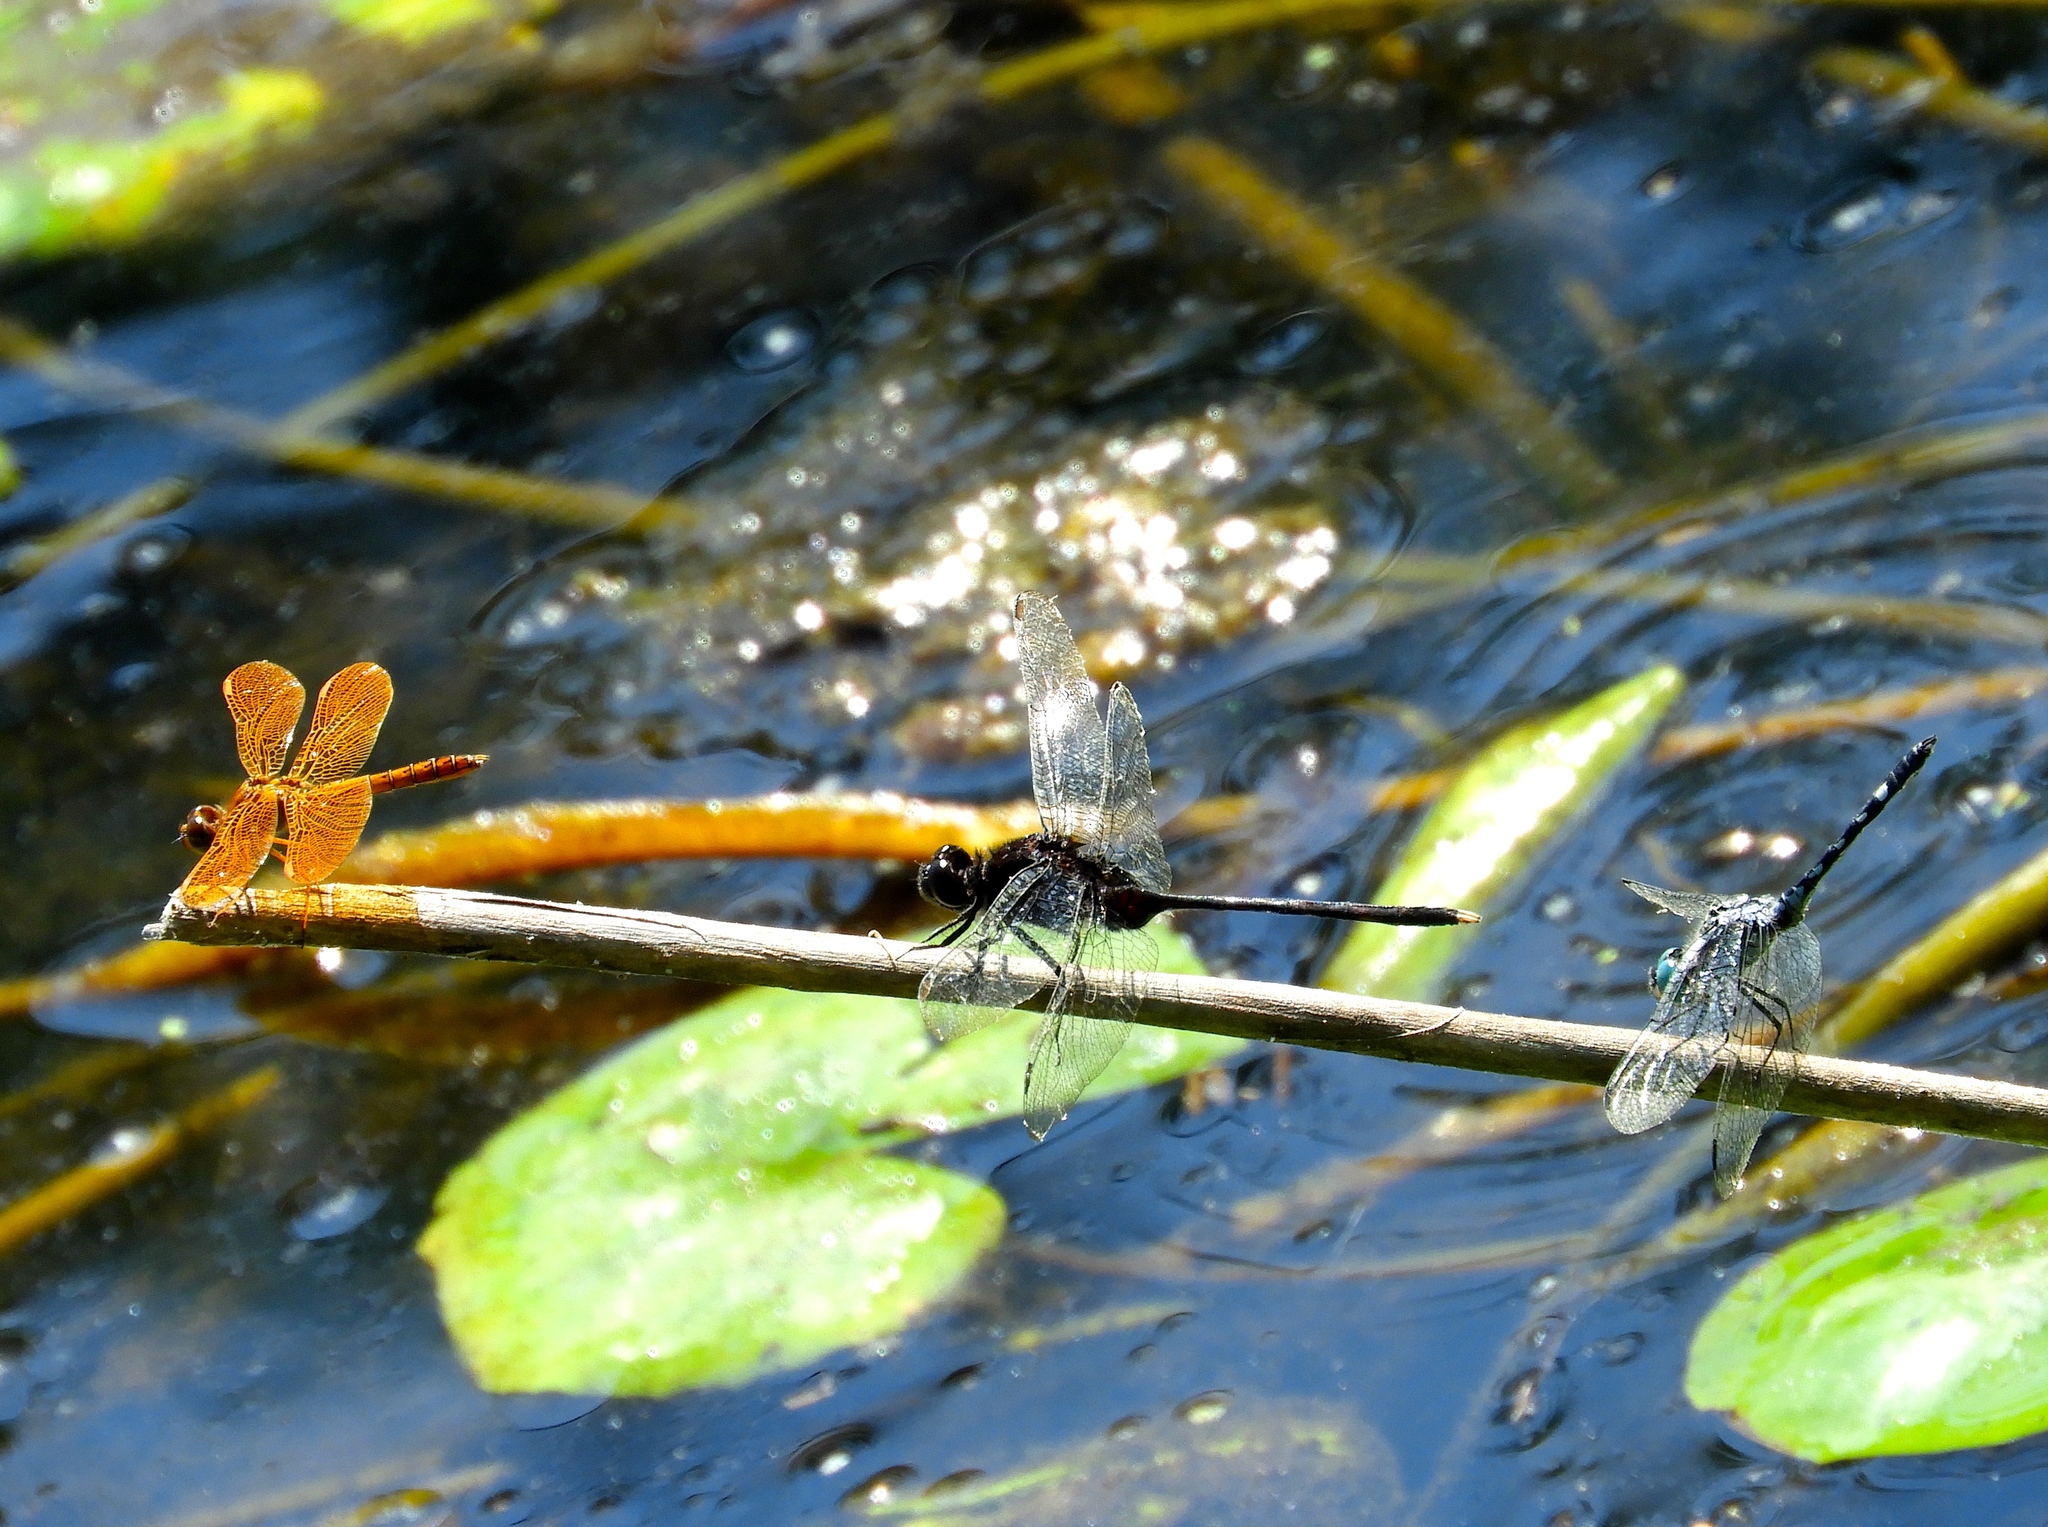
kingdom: Animalia
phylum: Arthropoda
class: Insecta
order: Odonata
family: Libellulidae
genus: Erythemis
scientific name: Erythemis plebeja
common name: Pin-tailed pondhawk
